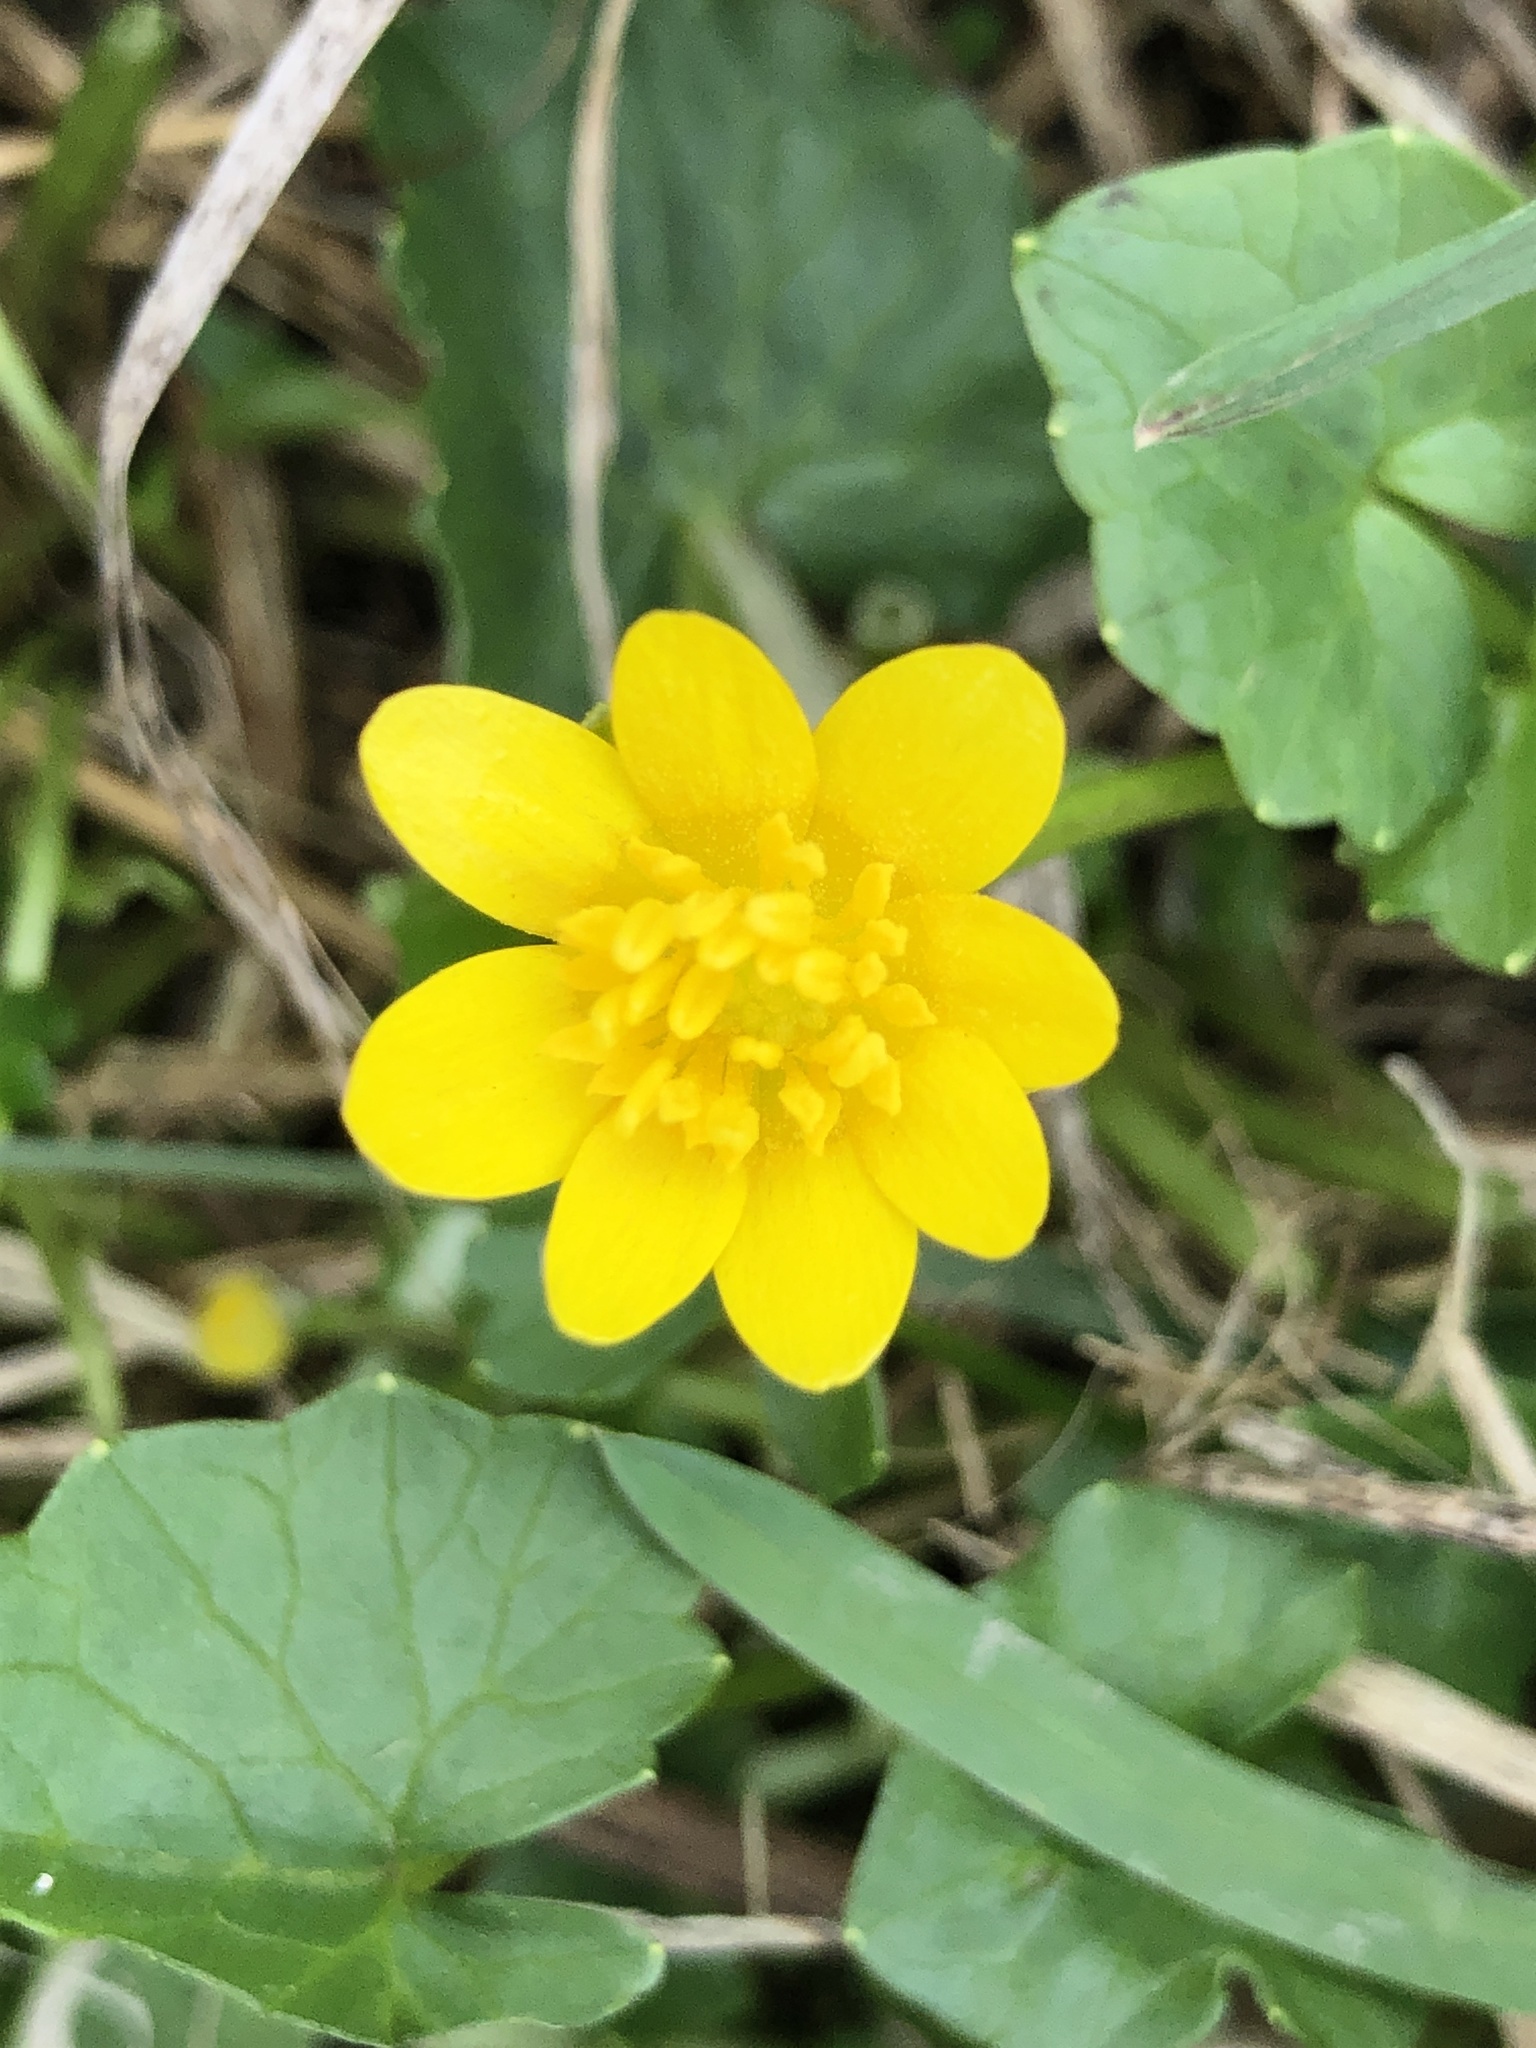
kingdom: Plantae
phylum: Tracheophyta
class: Magnoliopsida
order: Ranunculales
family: Ranunculaceae
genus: Ficaria
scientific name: Ficaria verna
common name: Lesser celandine
